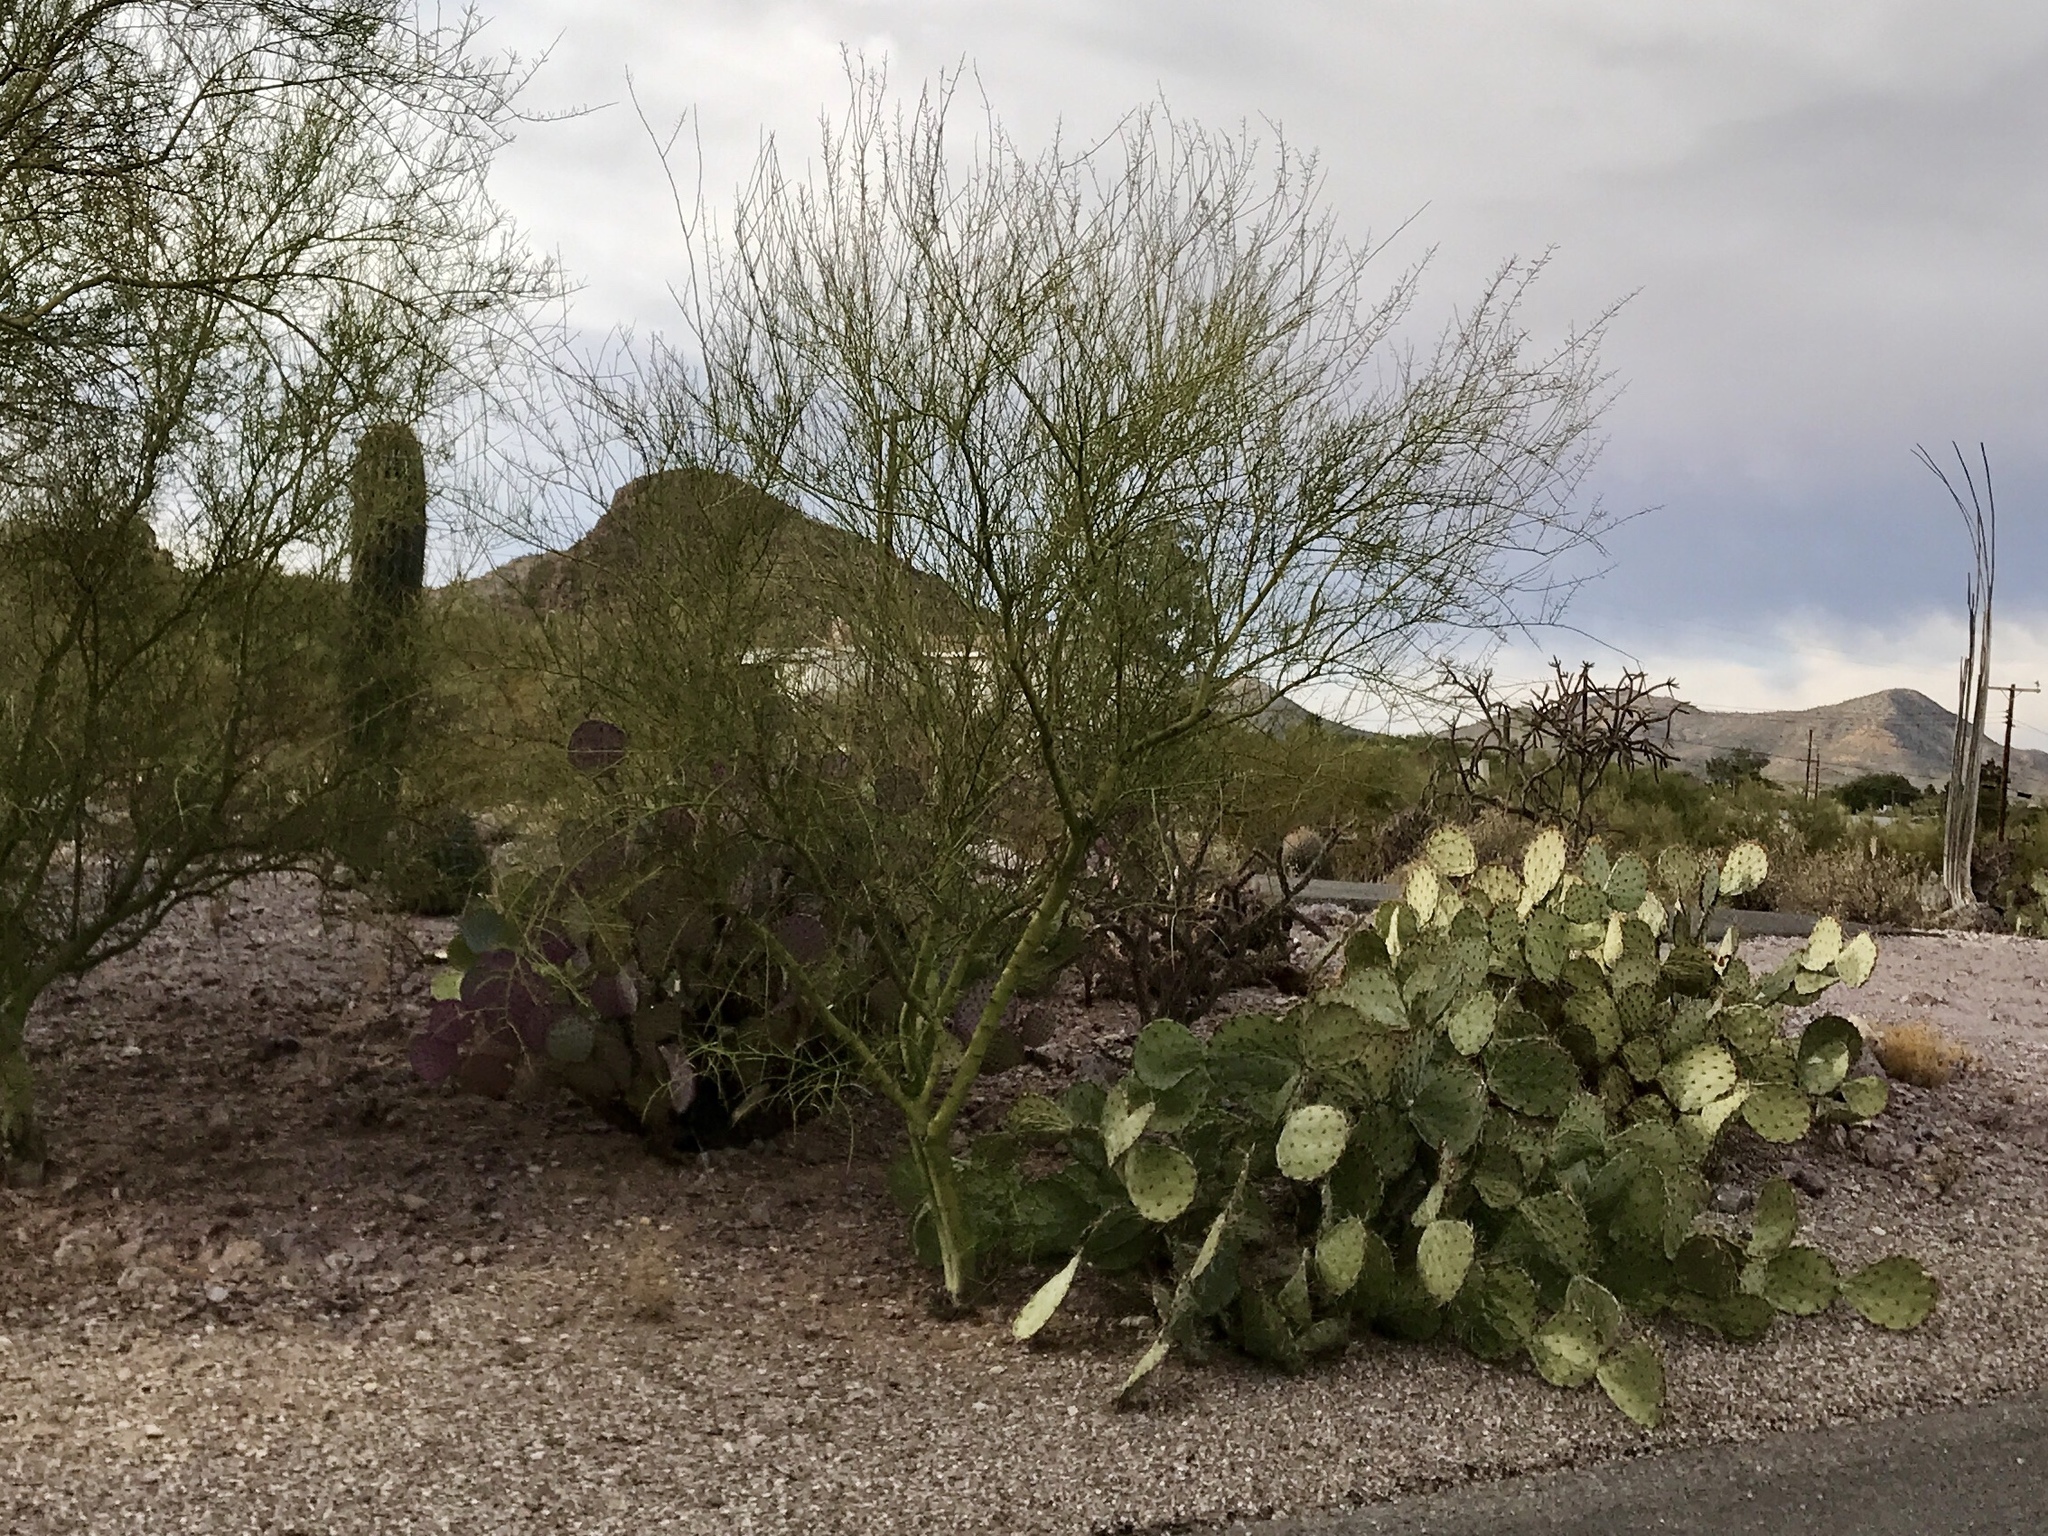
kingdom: Plantae
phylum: Tracheophyta
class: Magnoliopsida
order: Fabales
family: Fabaceae
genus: Parkinsonia
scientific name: Parkinsonia microphylla
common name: Yellow paloverde
